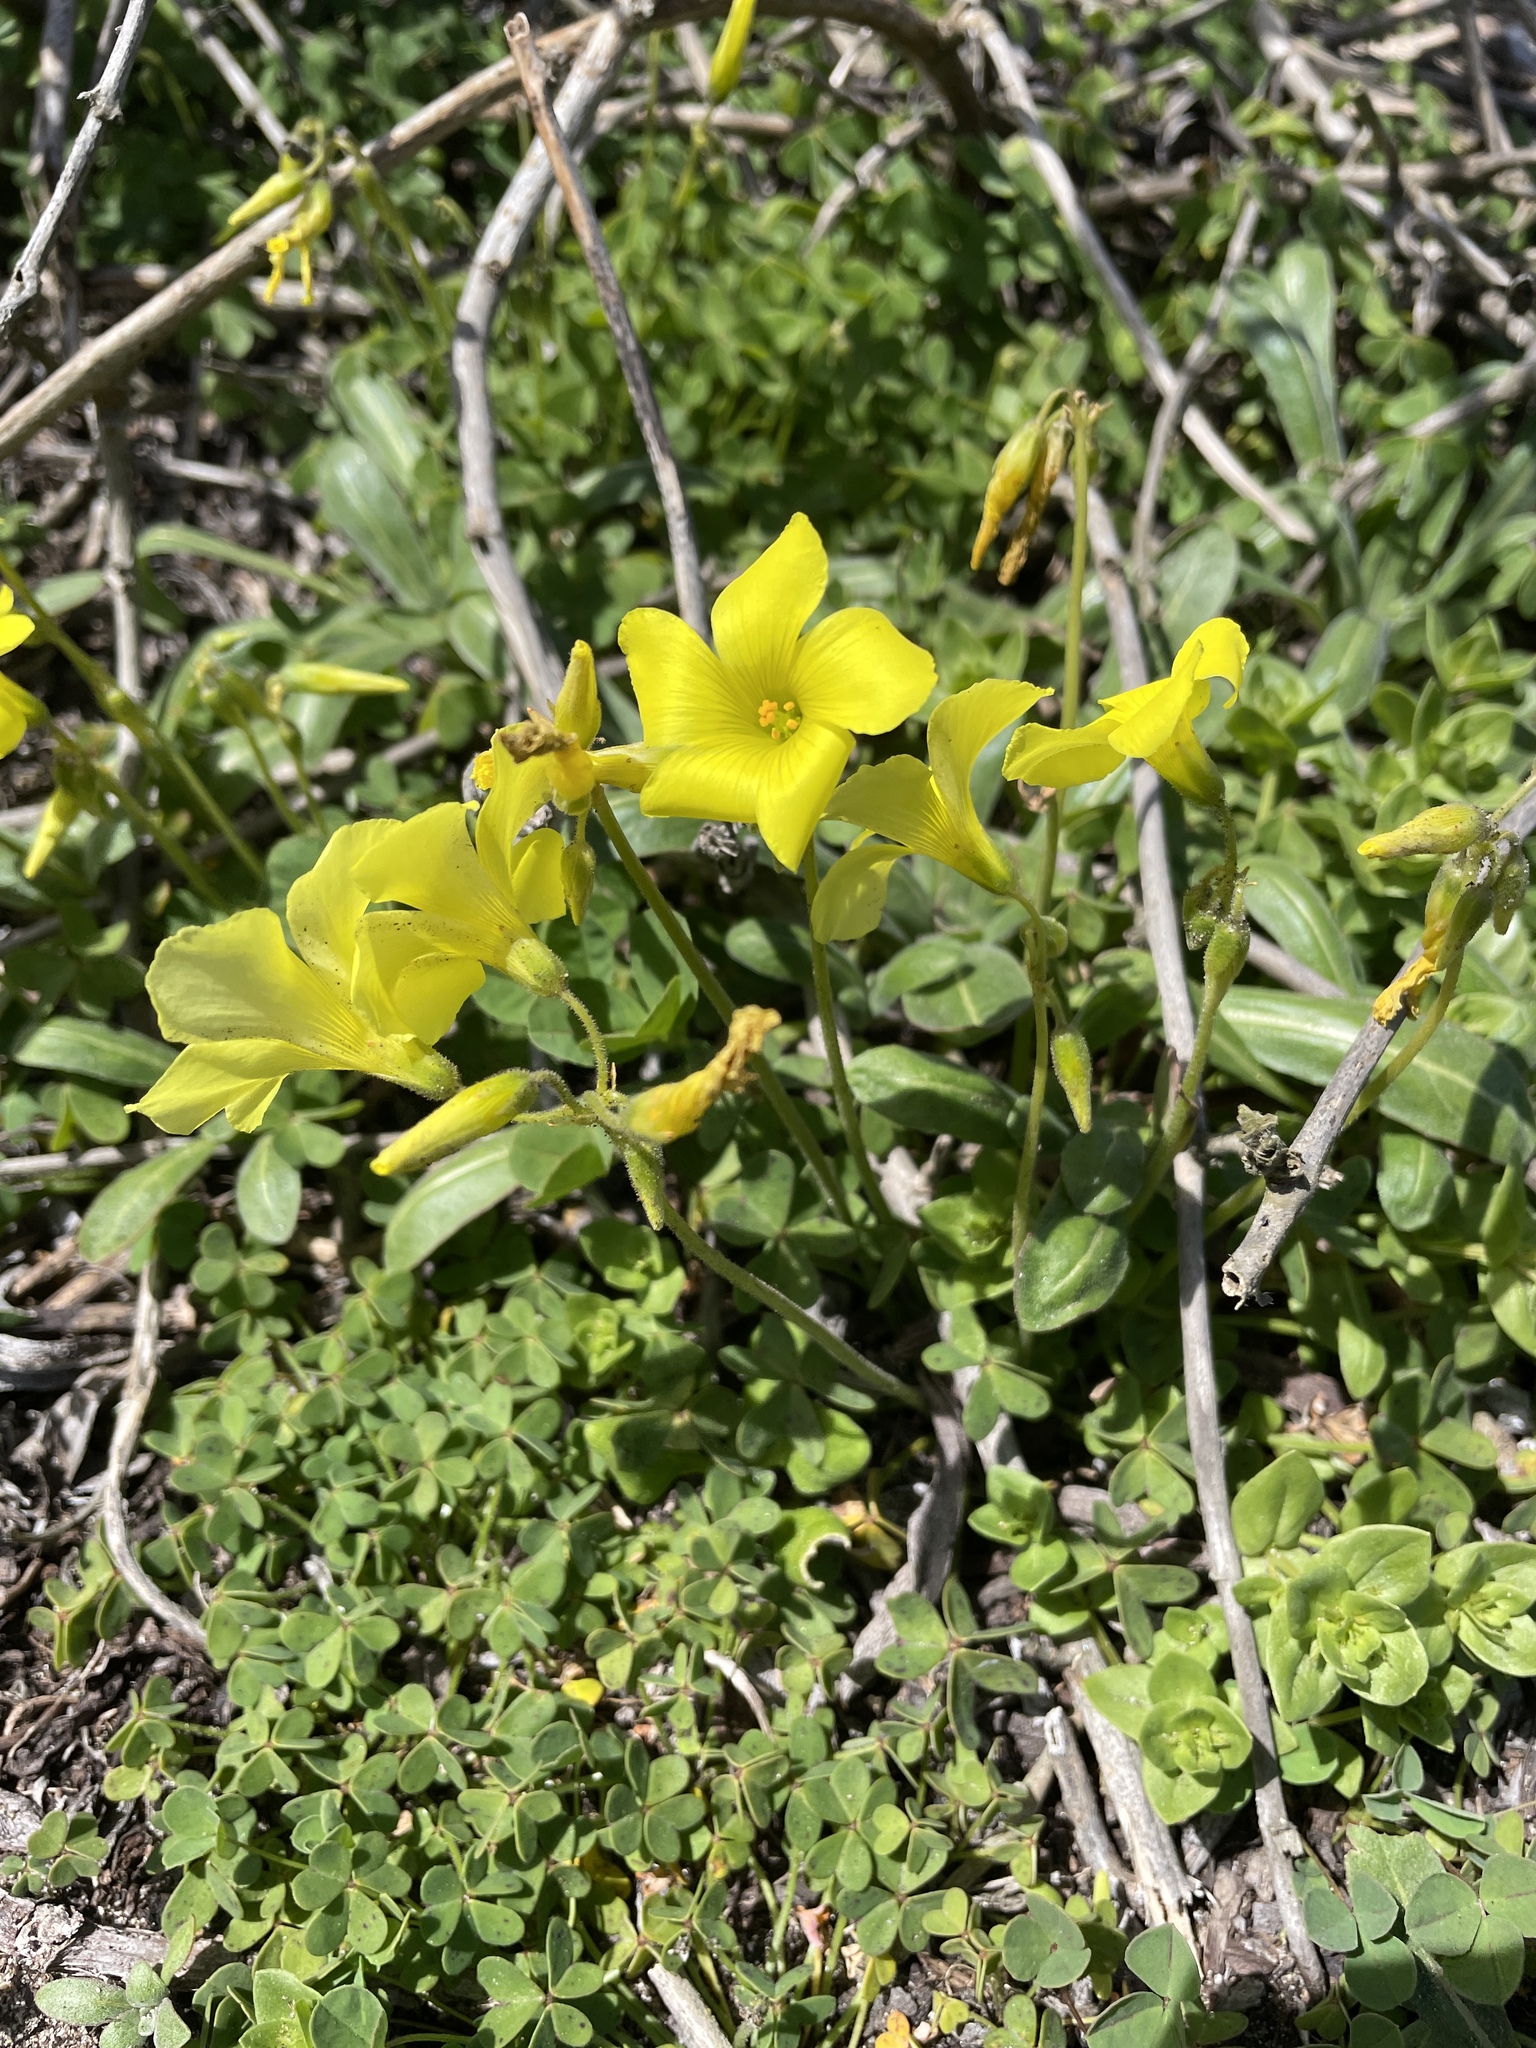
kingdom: Plantae
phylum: Tracheophyta
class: Magnoliopsida
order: Oxalidales
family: Oxalidaceae
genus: Oxalis
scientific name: Oxalis pes-caprae
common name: Bermuda-buttercup
